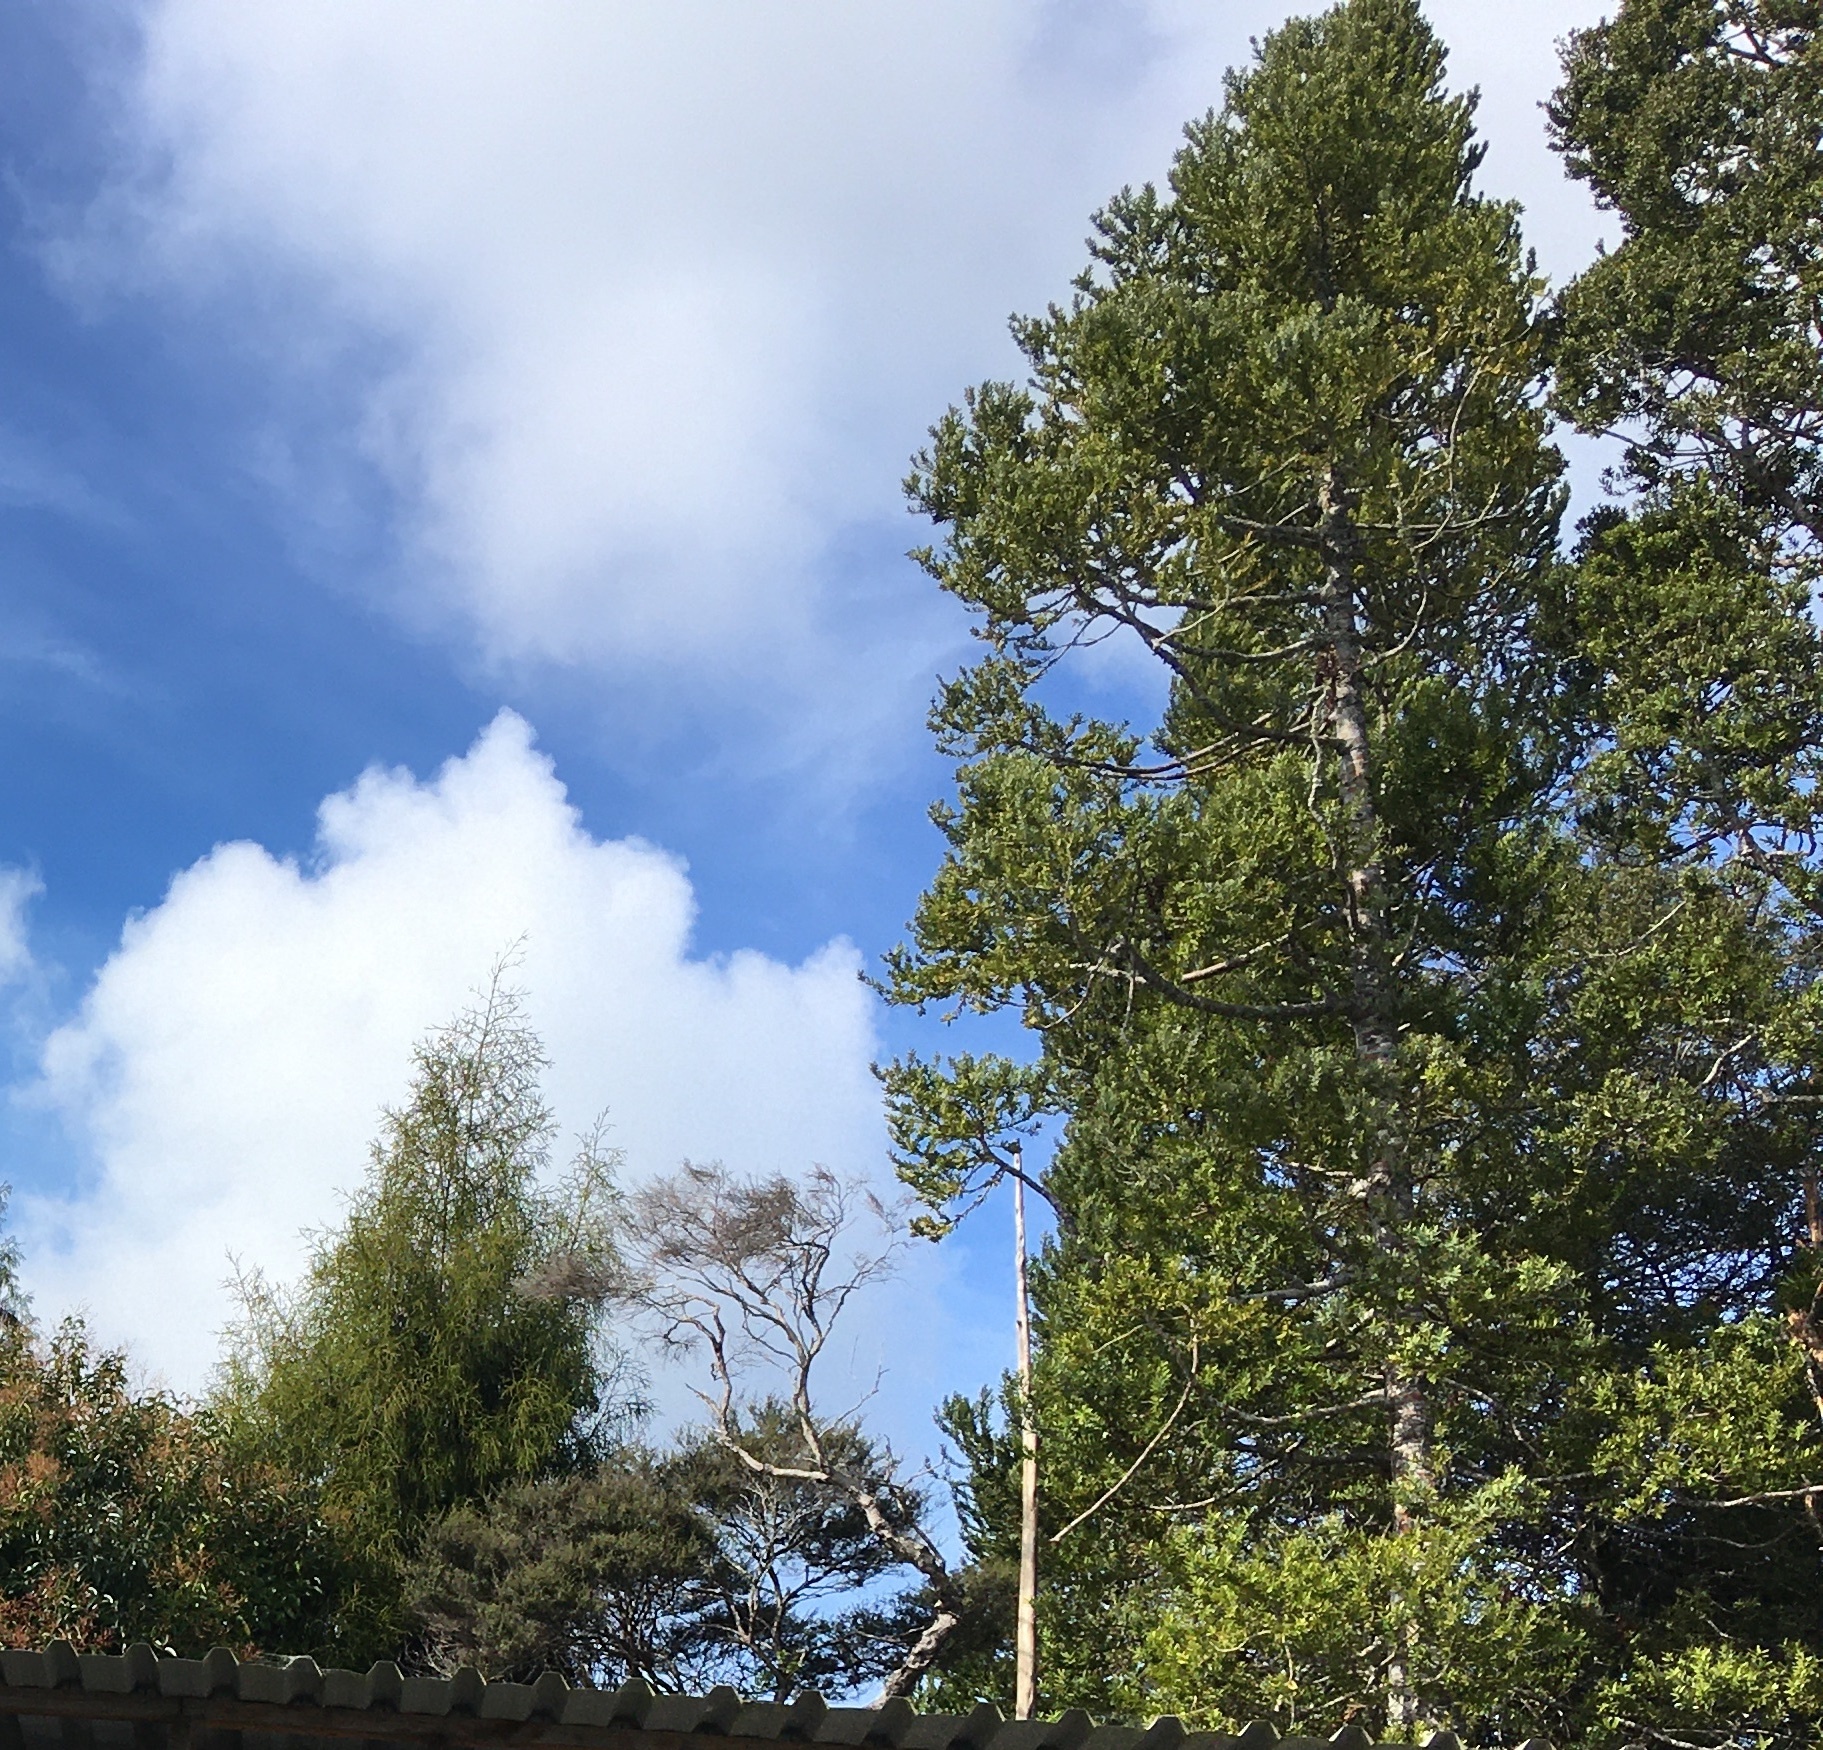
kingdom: Plantae
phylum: Tracheophyta
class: Pinopsida
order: Pinales
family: Araucariaceae
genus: Agathis
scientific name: Agathis australis
